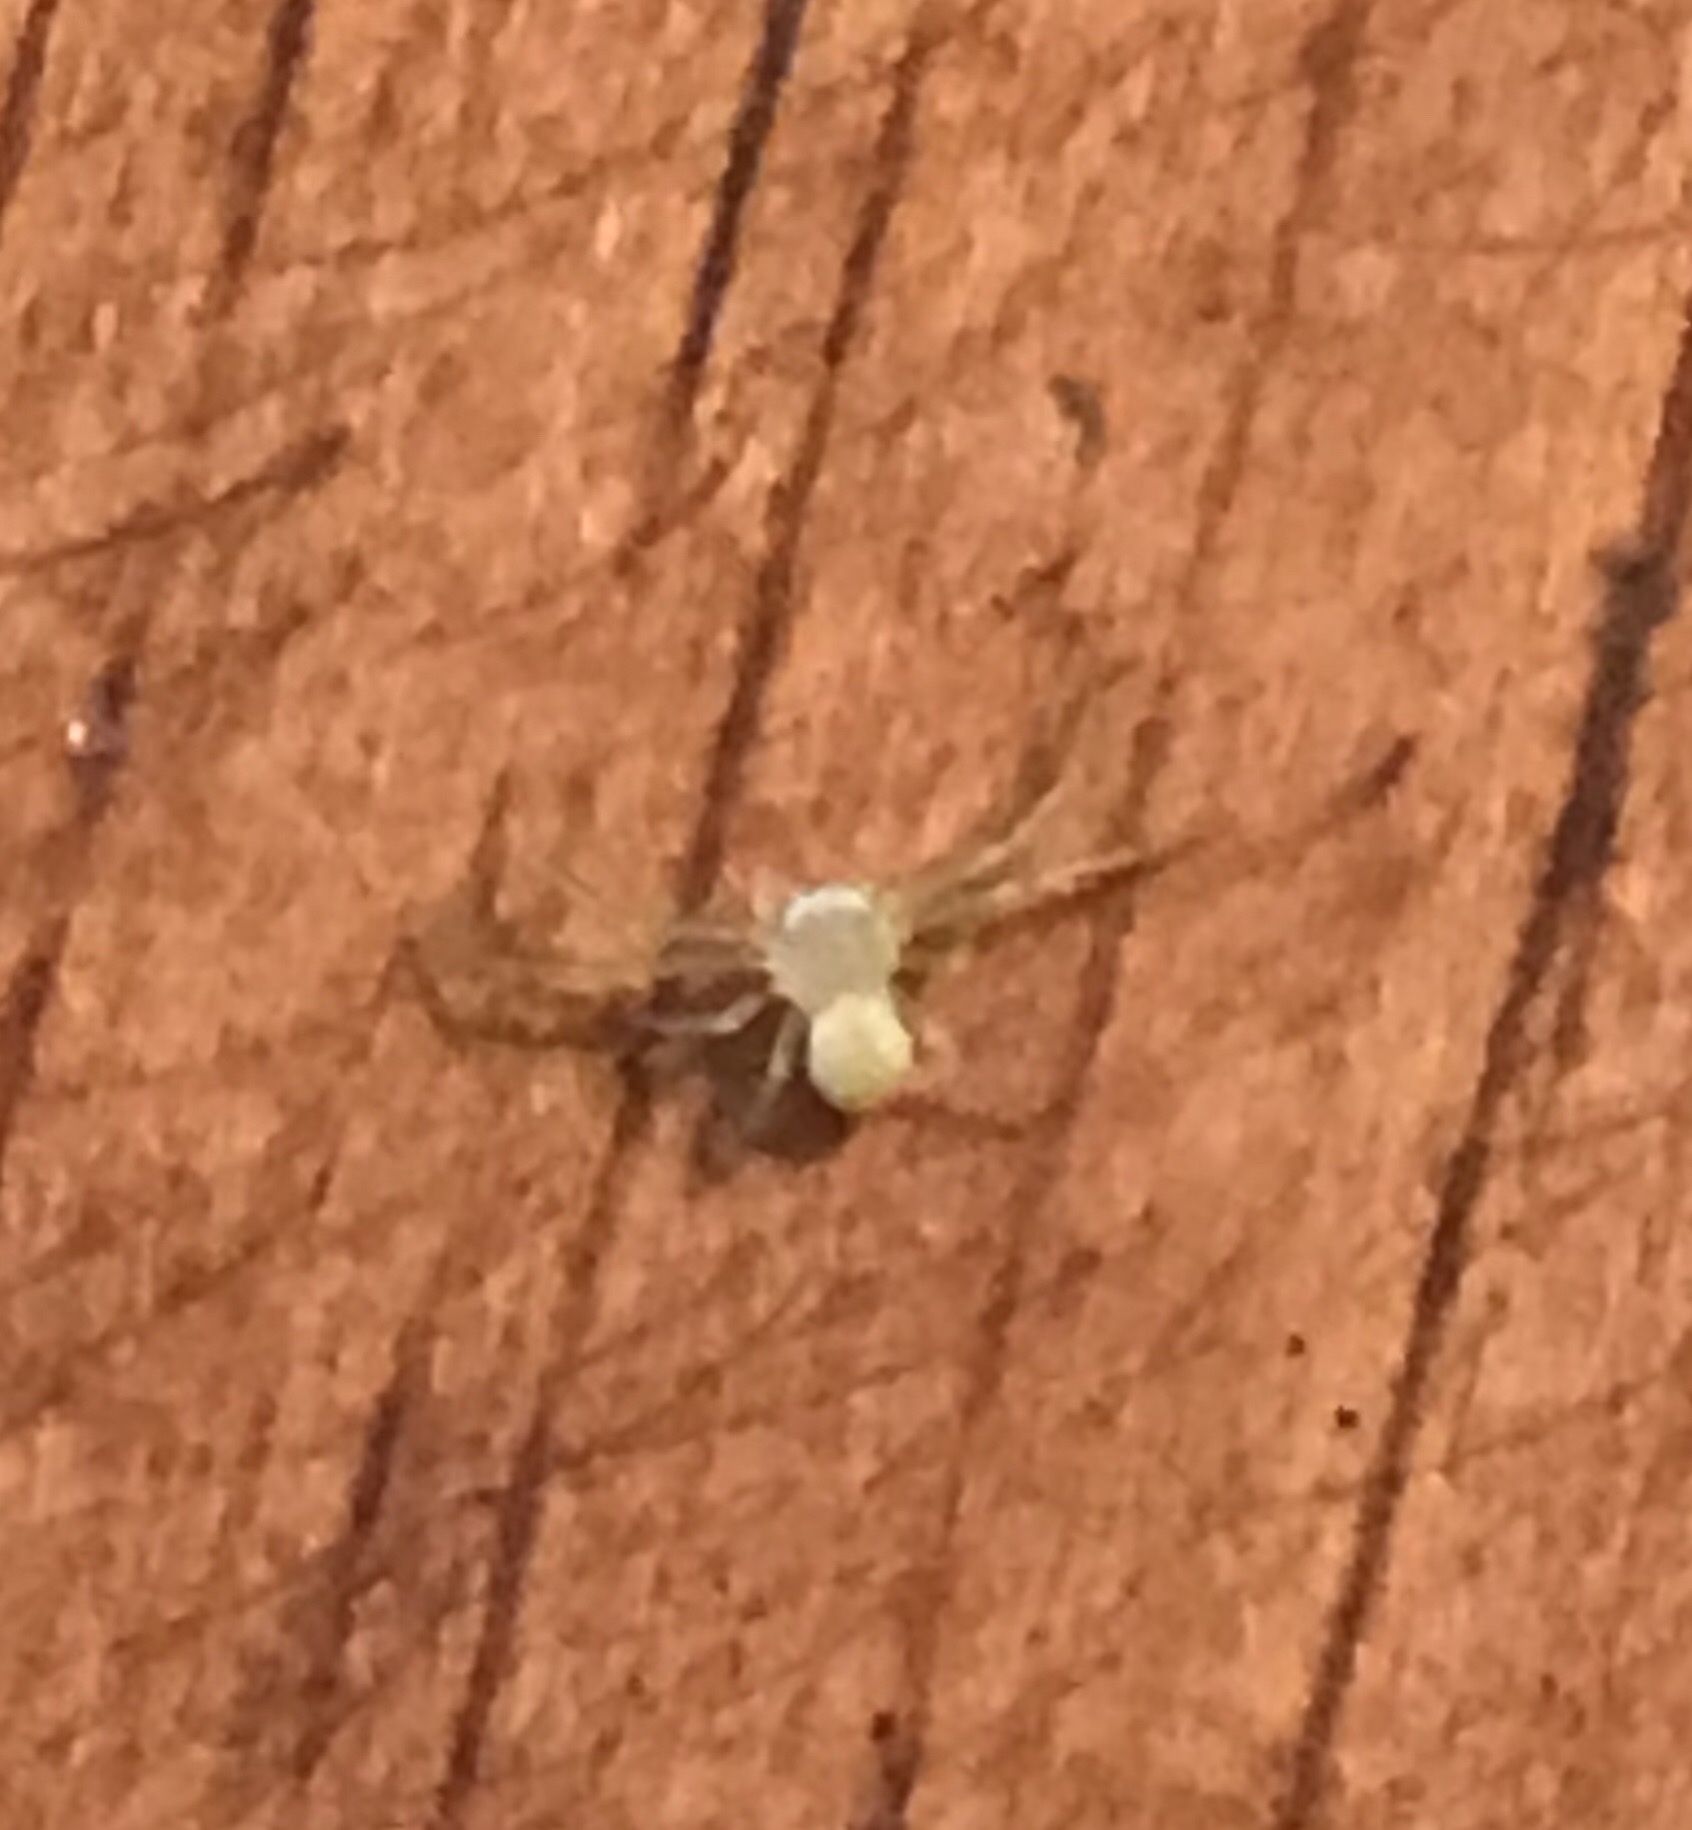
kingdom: Animalia
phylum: Arthropoda
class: Arachnida
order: Araneae
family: Thomisidae
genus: Misumessus
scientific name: Misumessus oblongus
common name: American green crab spider
